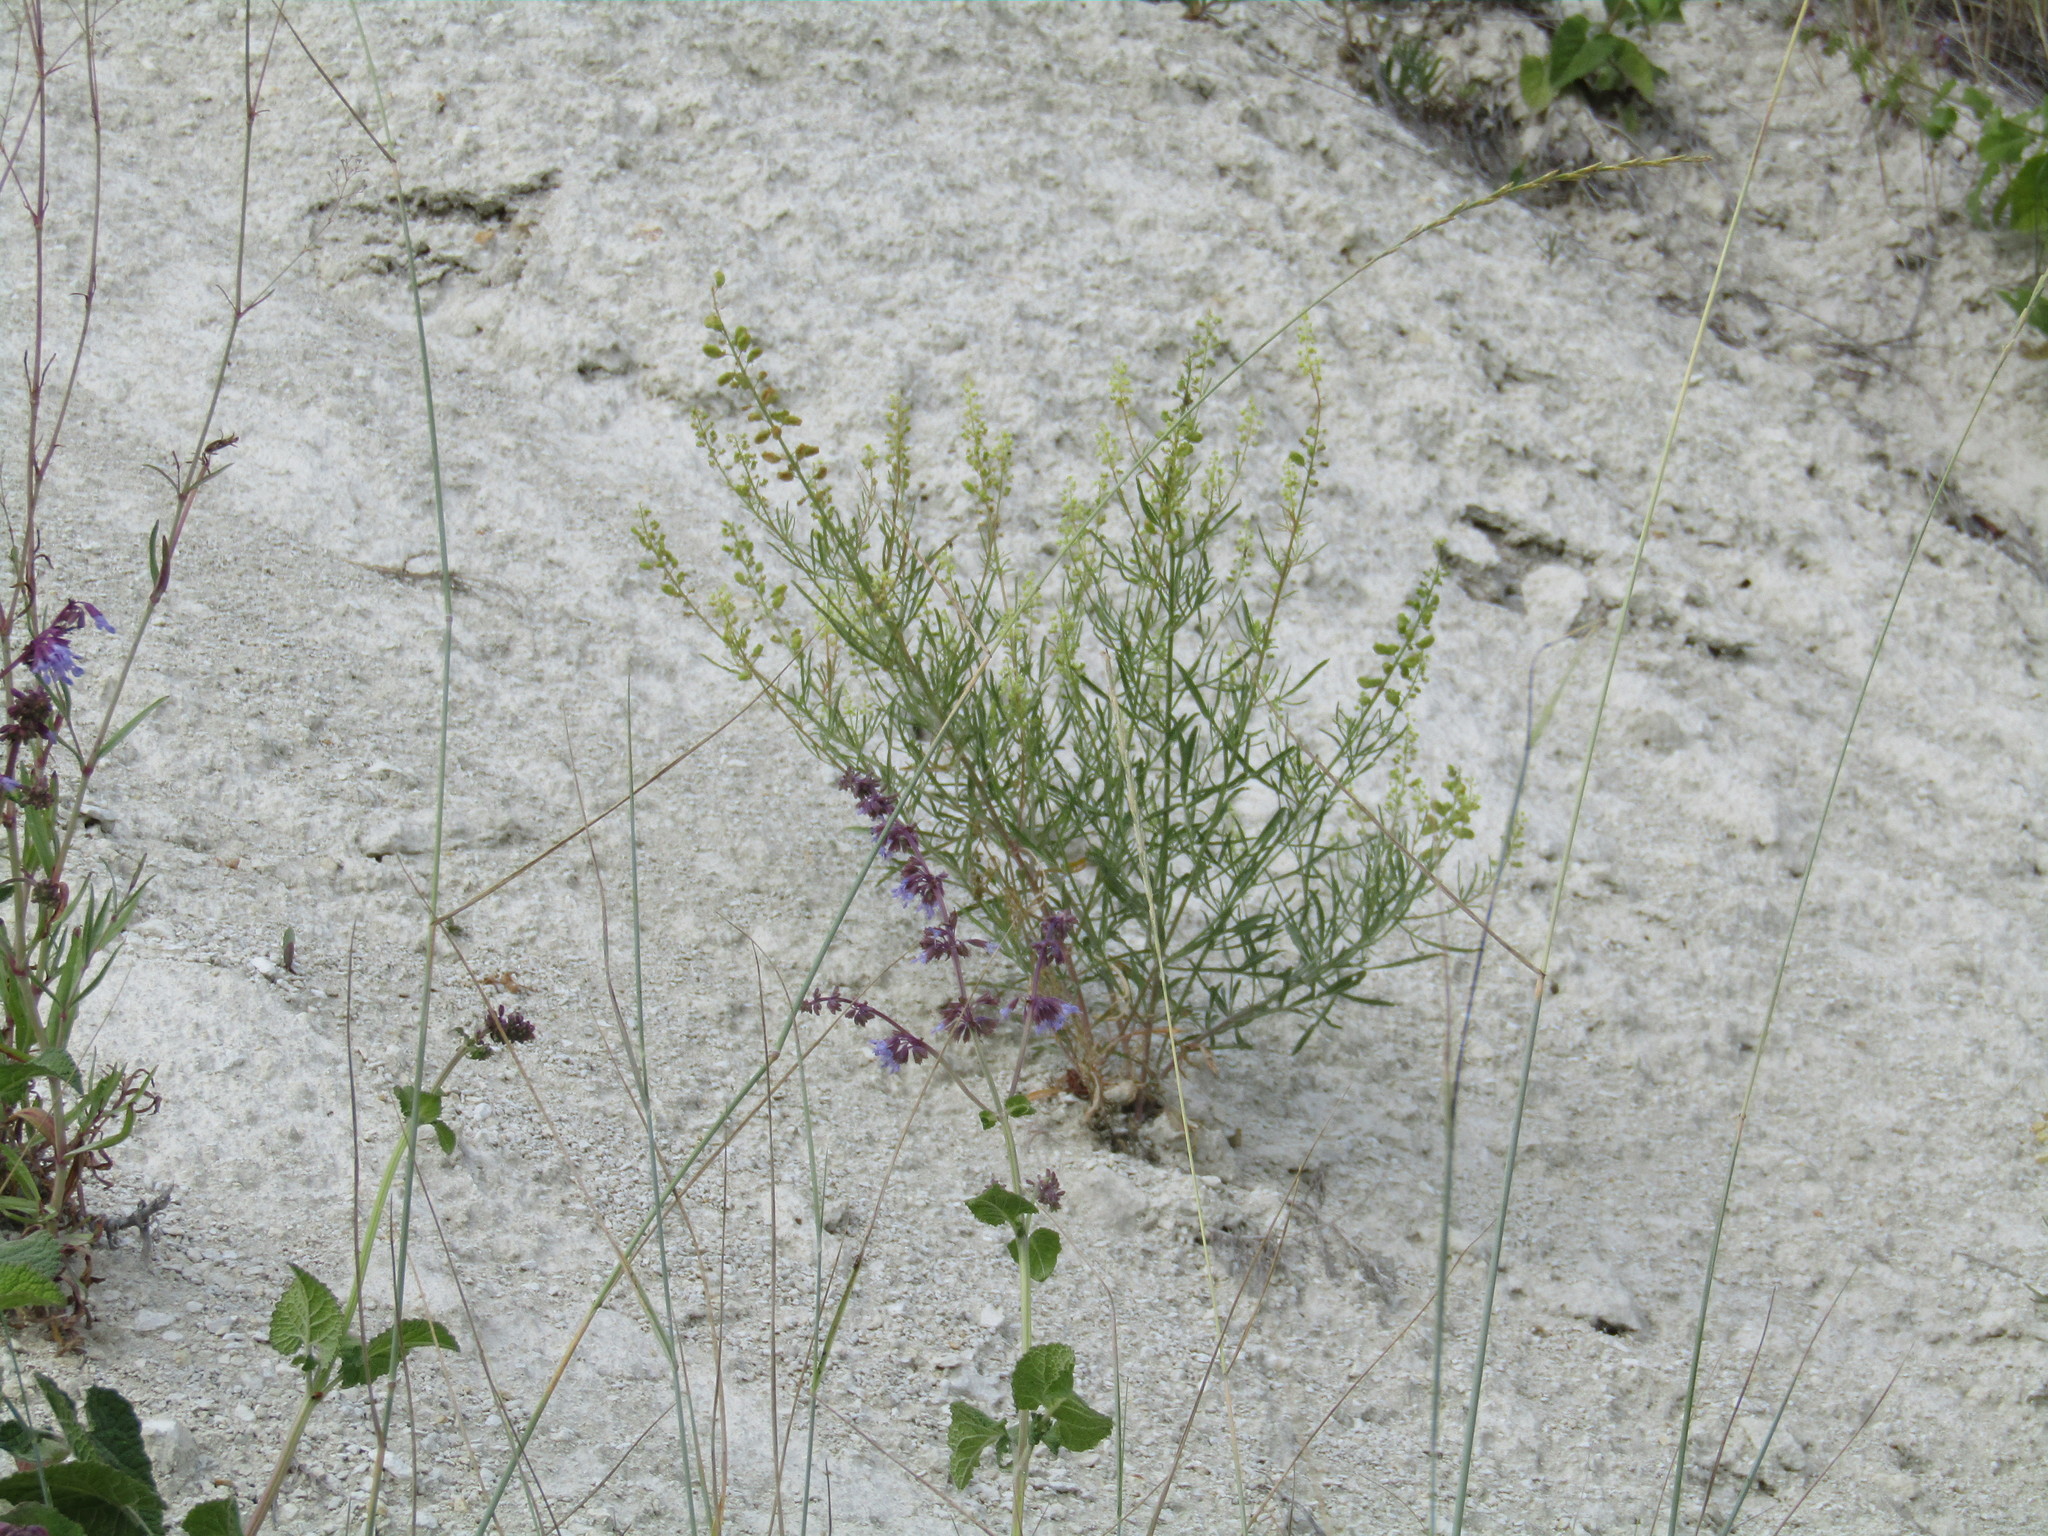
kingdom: Plantae
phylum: Tracheophyta
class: Magnoliopsida
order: Brassicales
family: Resedaceae
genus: Reseda
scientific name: Reseda lutea
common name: Wild mignonette
